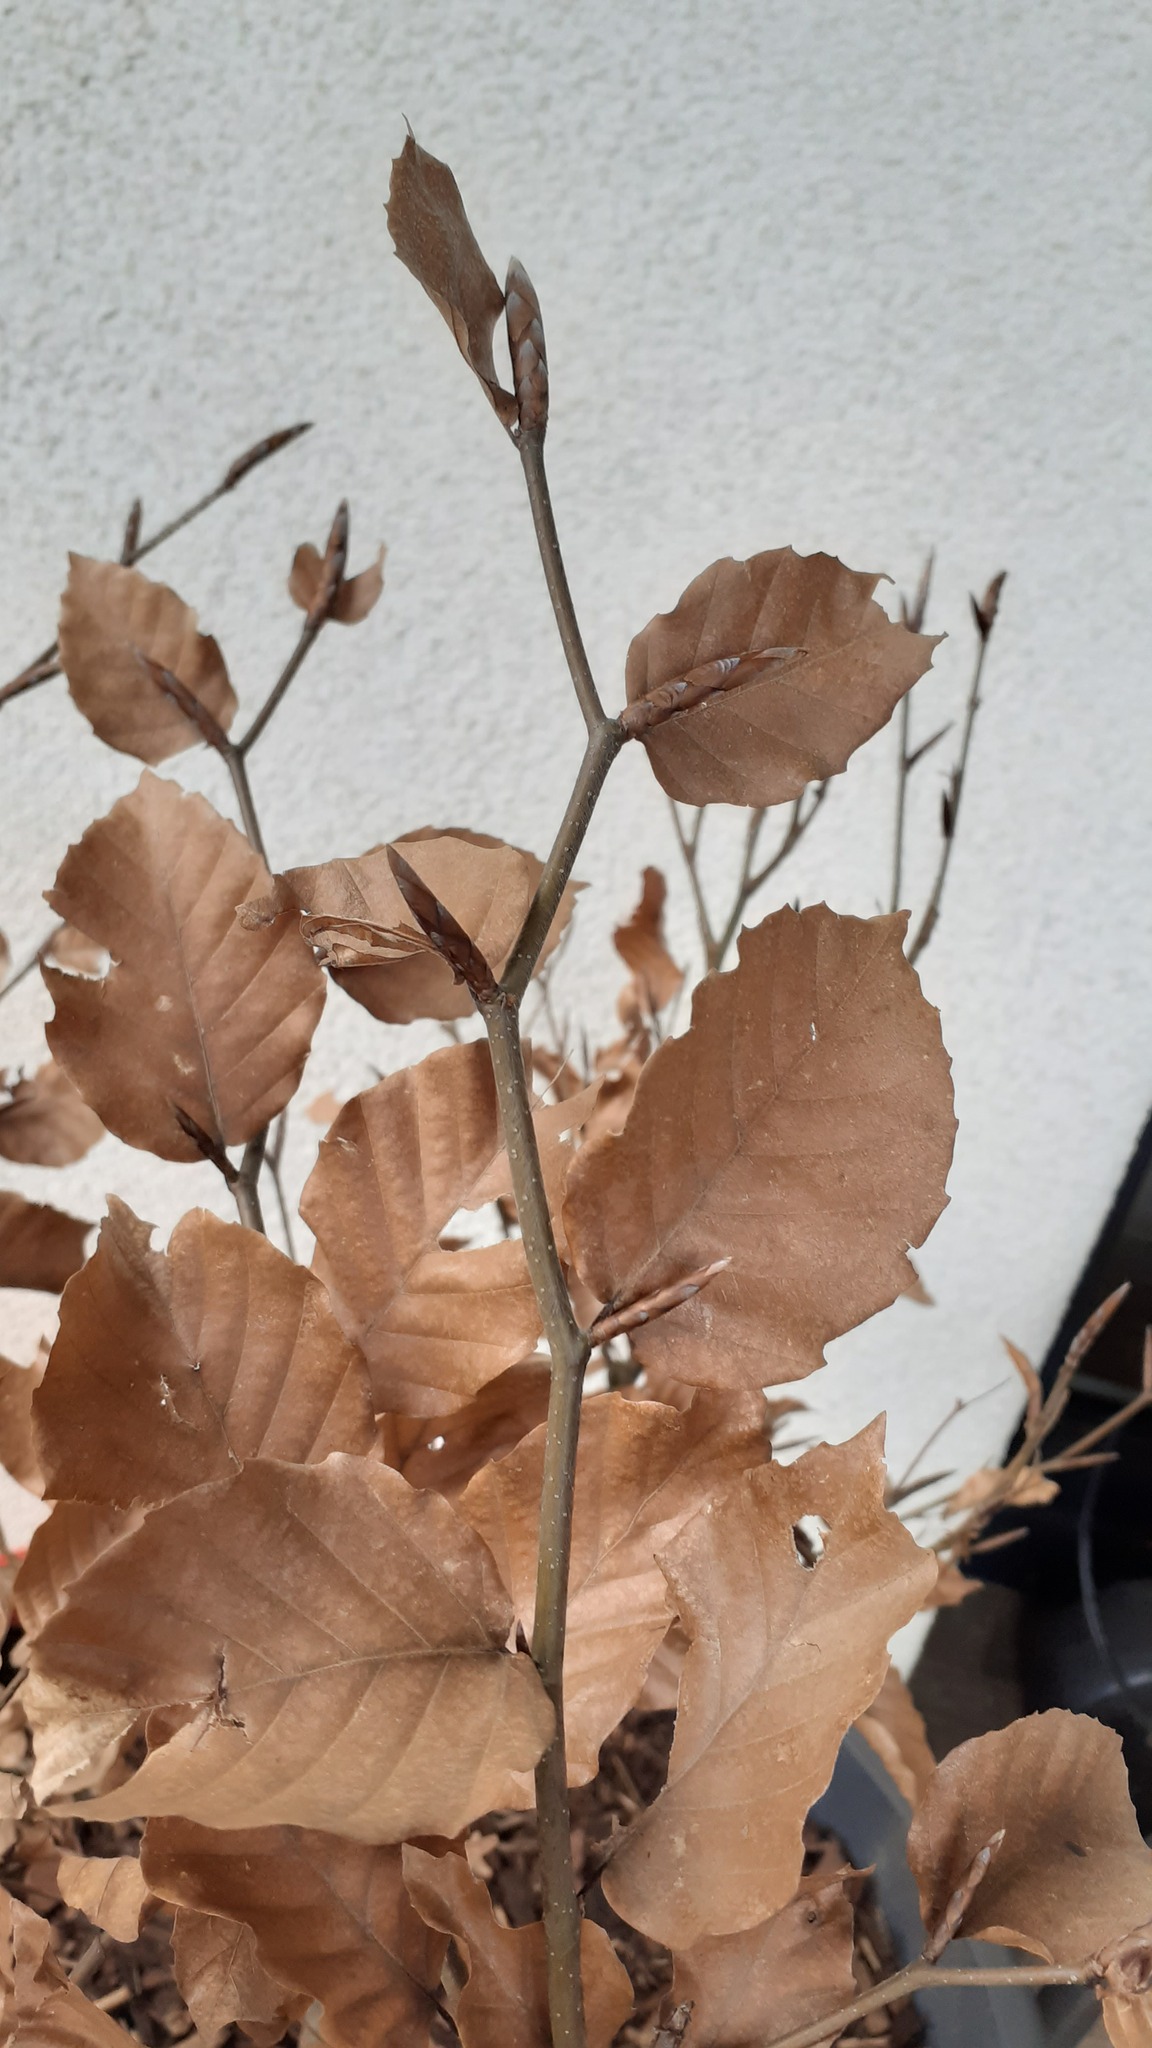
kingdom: Plantae
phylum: Tracheophyta
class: Magnoliopsida
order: Fagales
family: Fagaceae
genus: Fagus
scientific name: Fagus sylvatica
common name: Beech
